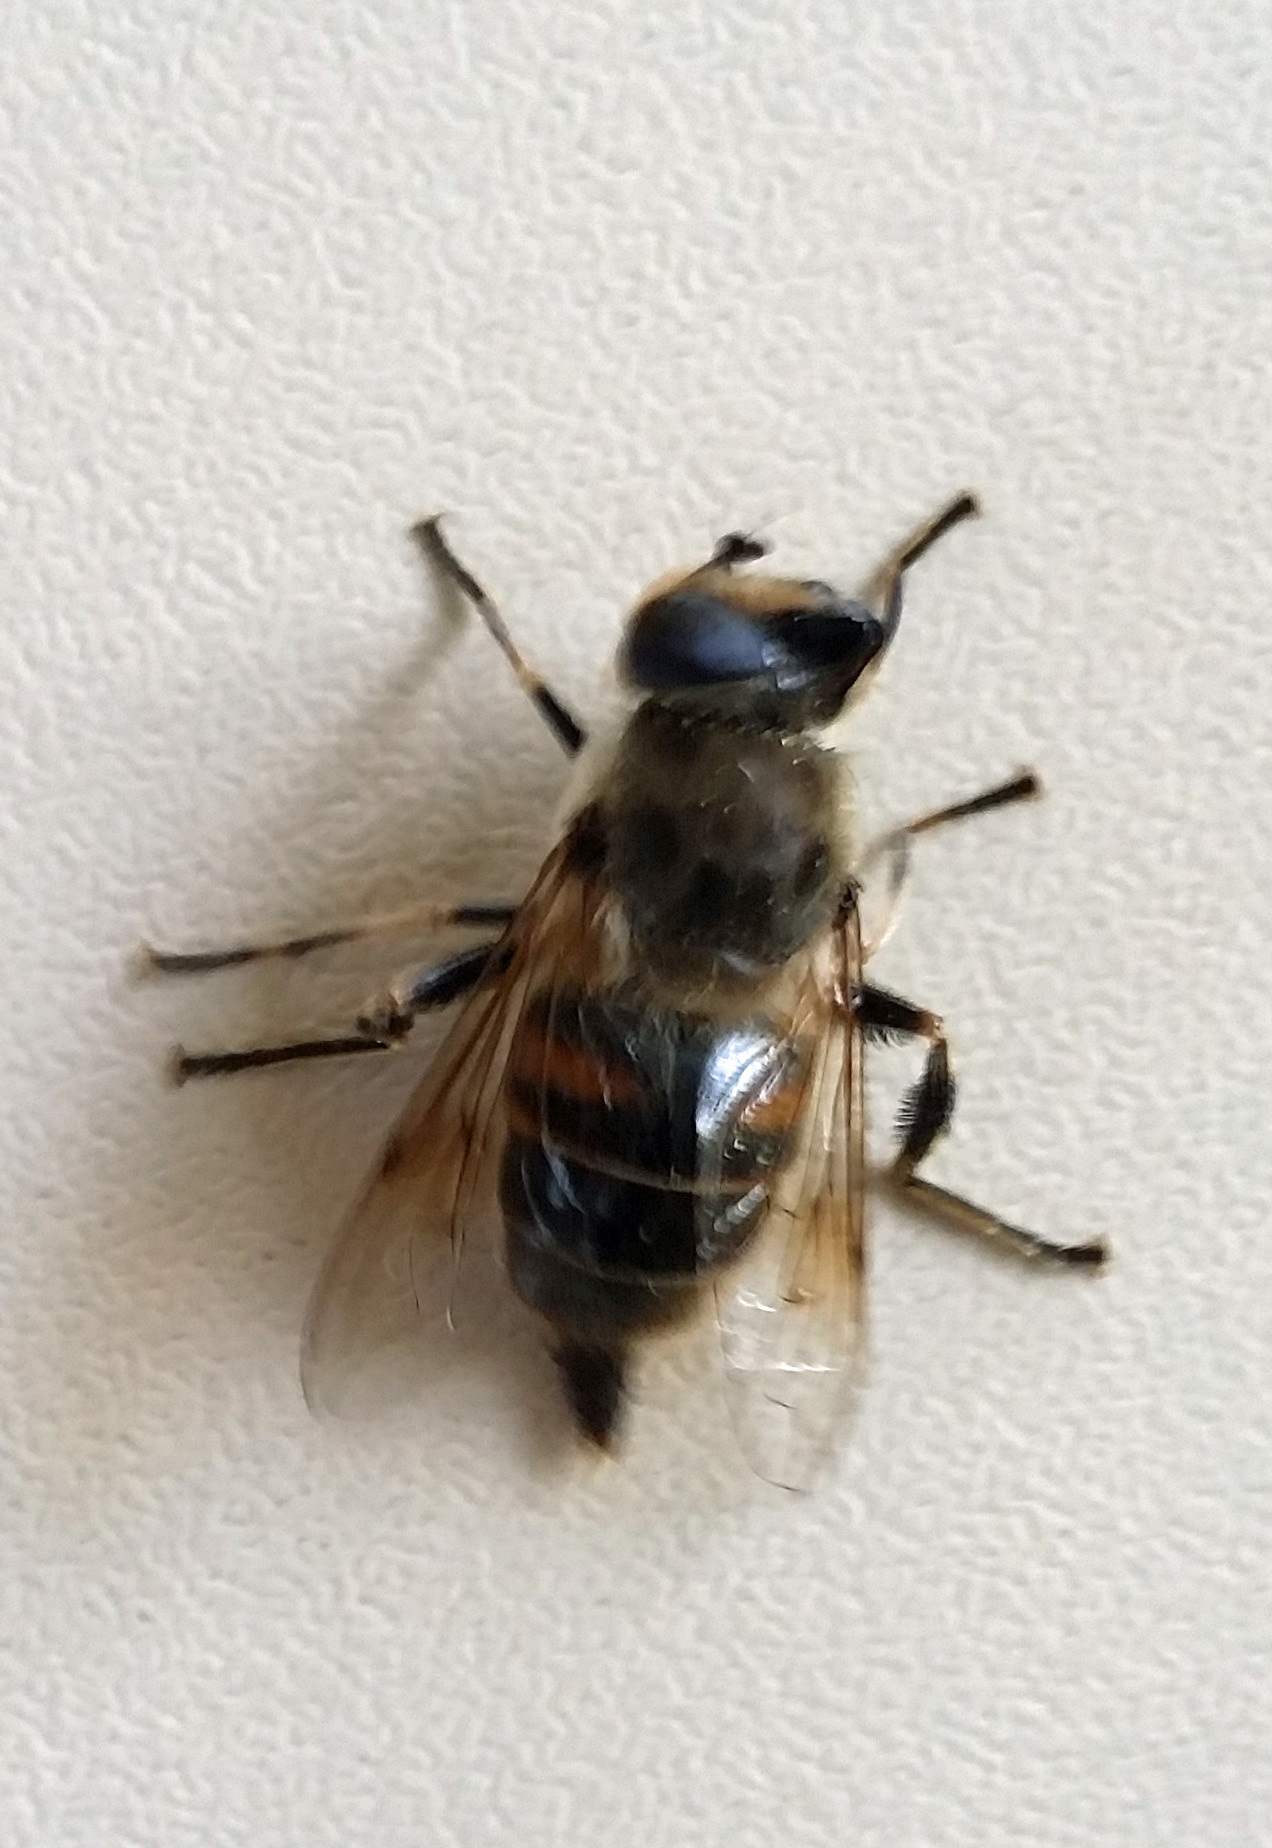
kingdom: Animalia
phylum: Arthropoda
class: Insecta
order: Diptera
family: Syrphidae
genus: Eristalis
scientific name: Eristalis tenax
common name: Drone fly
